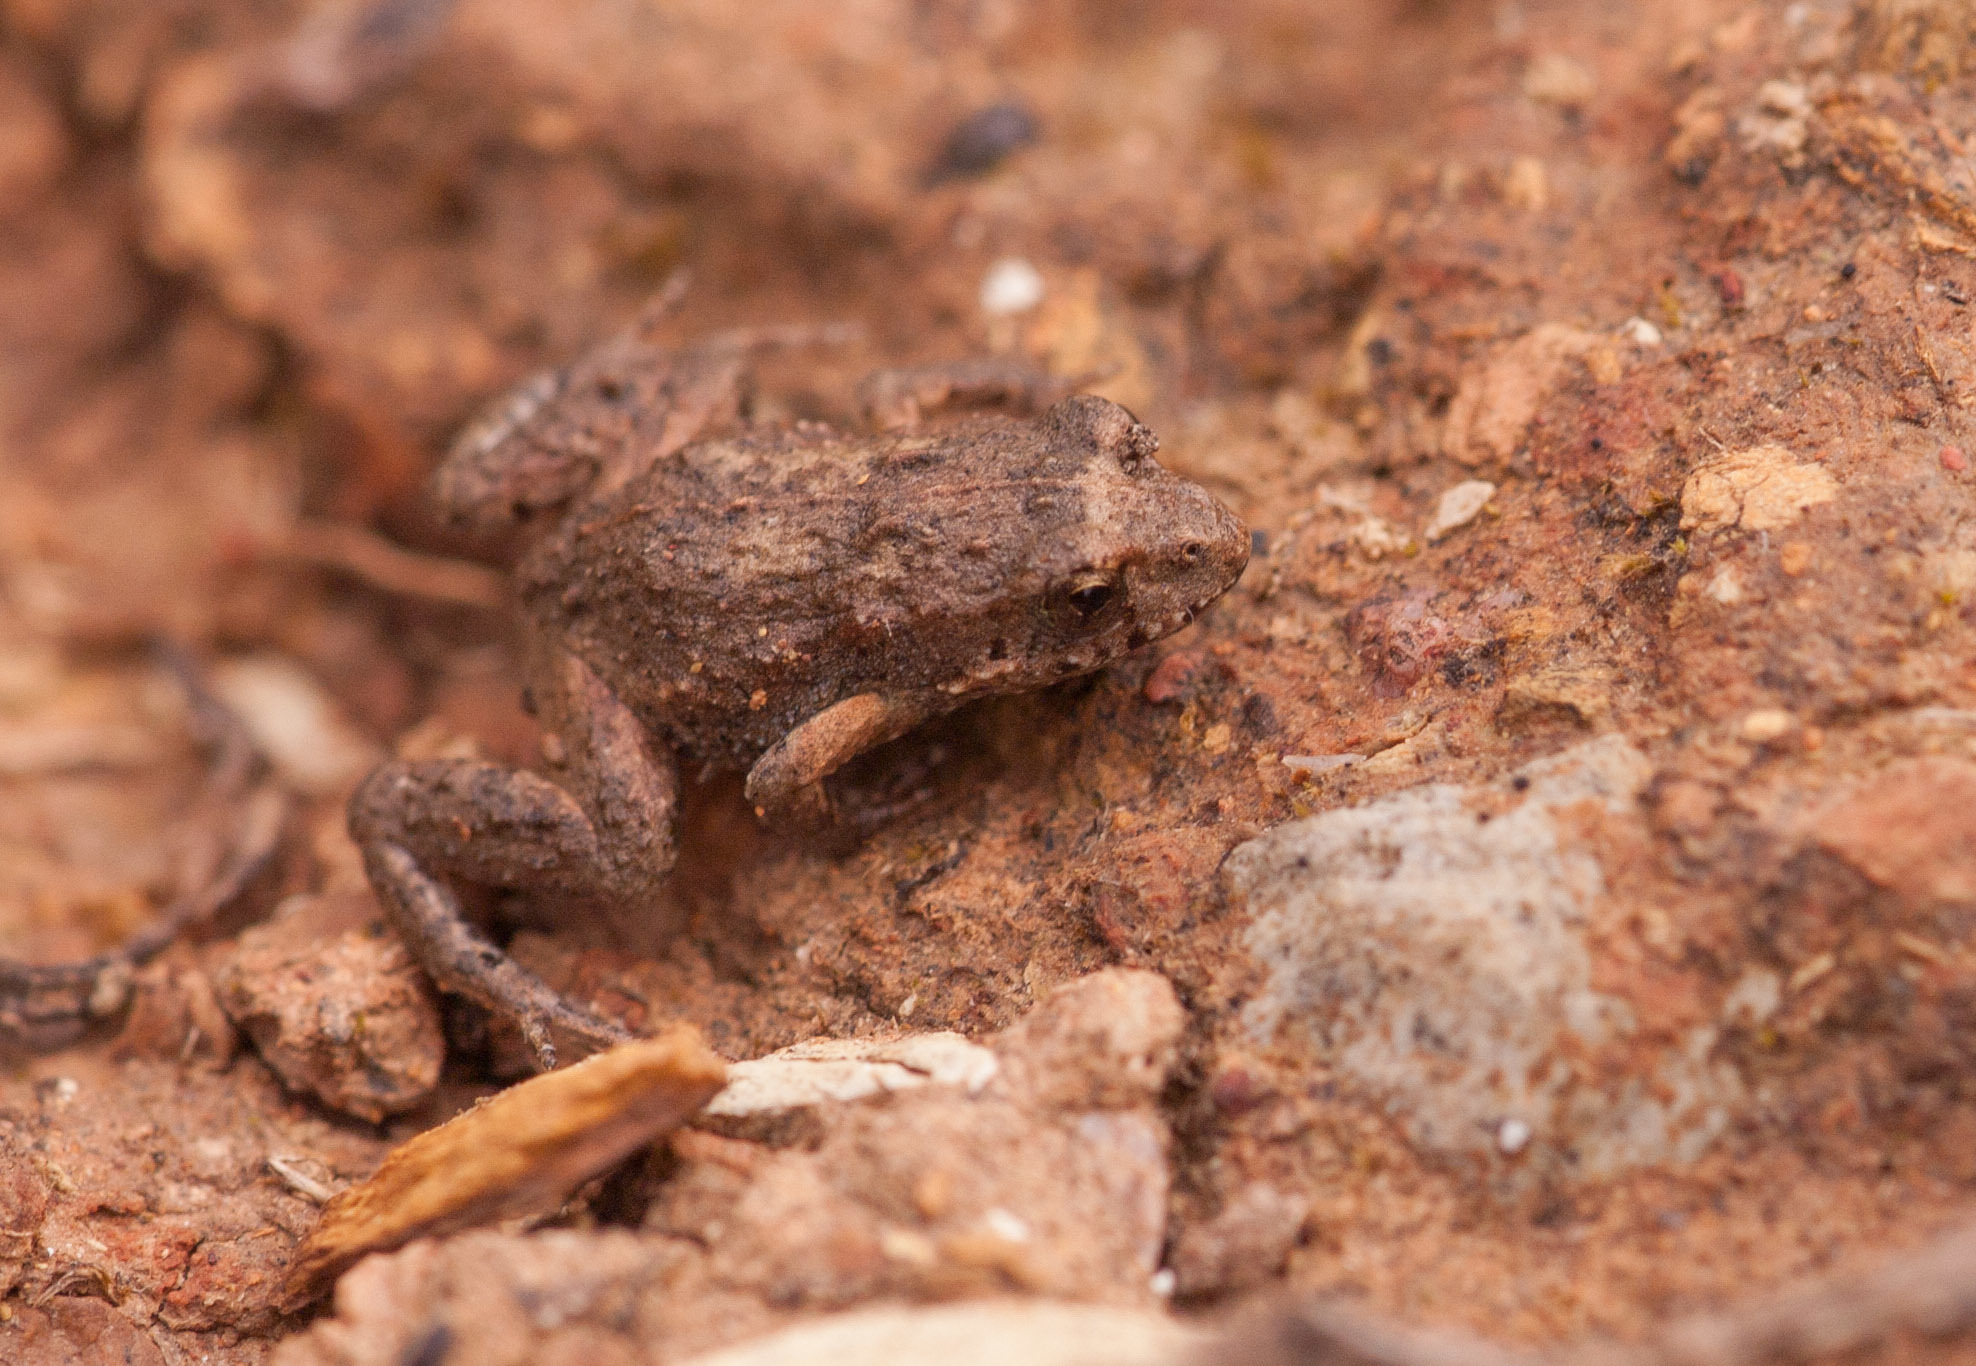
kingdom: Animalia
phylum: Chordata
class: Amphibia
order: Anura
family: Myobatrachidae
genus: Crinia
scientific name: Crinia signifera
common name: Brown froglet
